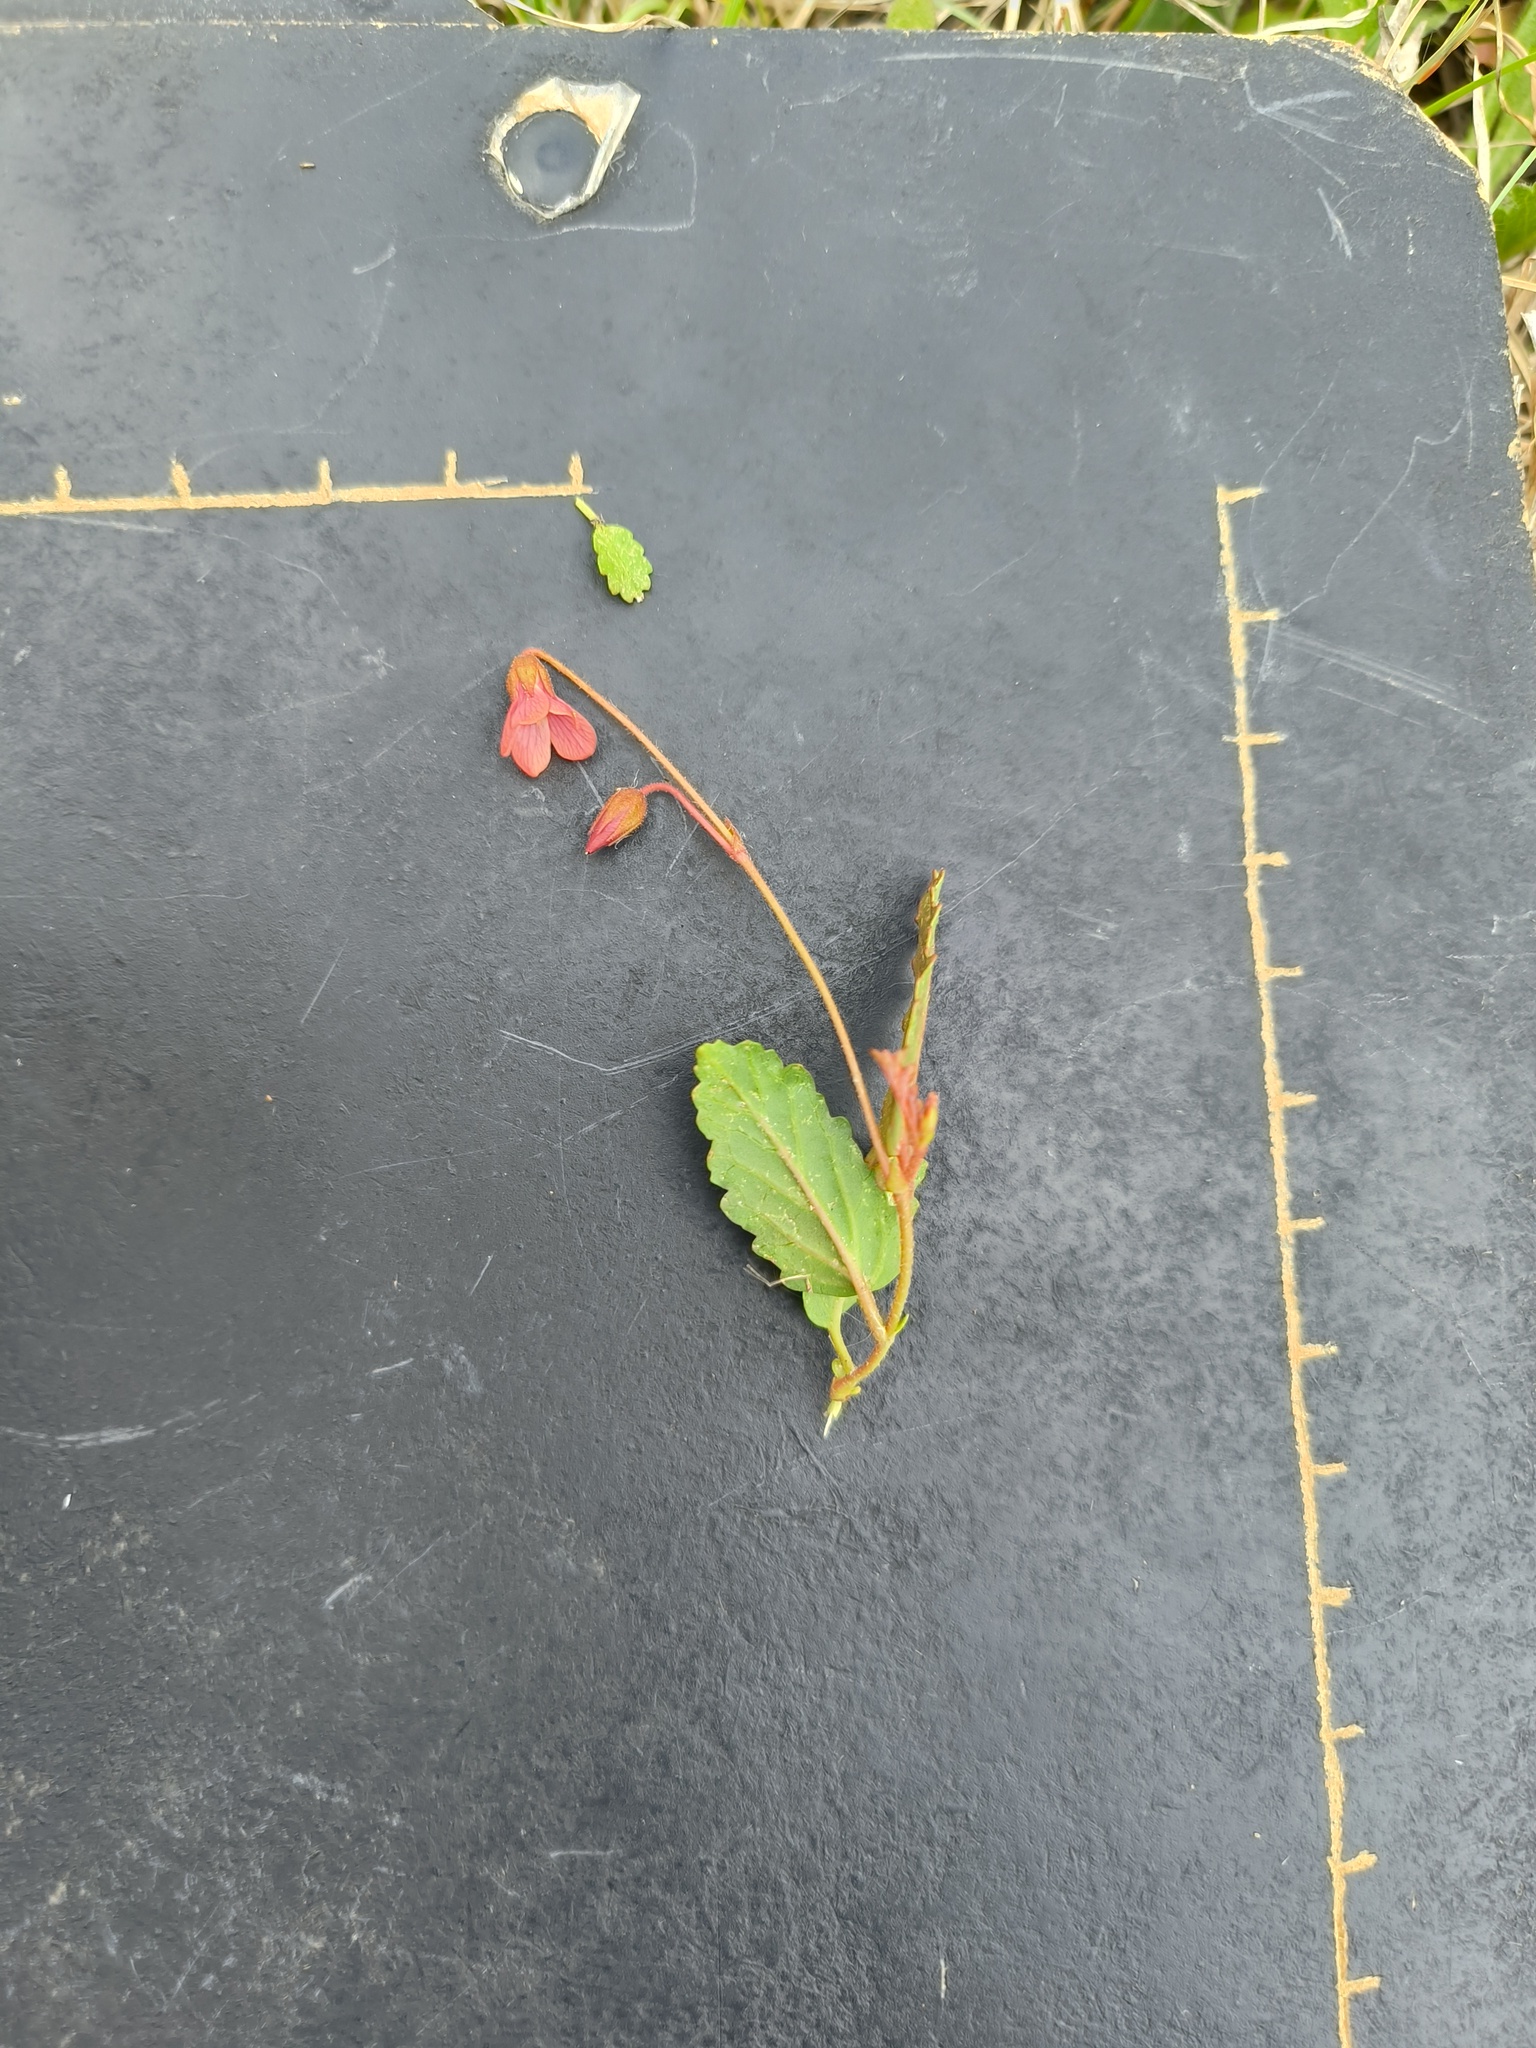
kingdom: Plantae
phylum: Tracheophyta
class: Magnoliopsida
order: Malvales
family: Malvaceae
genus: Hermannia
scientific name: Hermannia depressa
